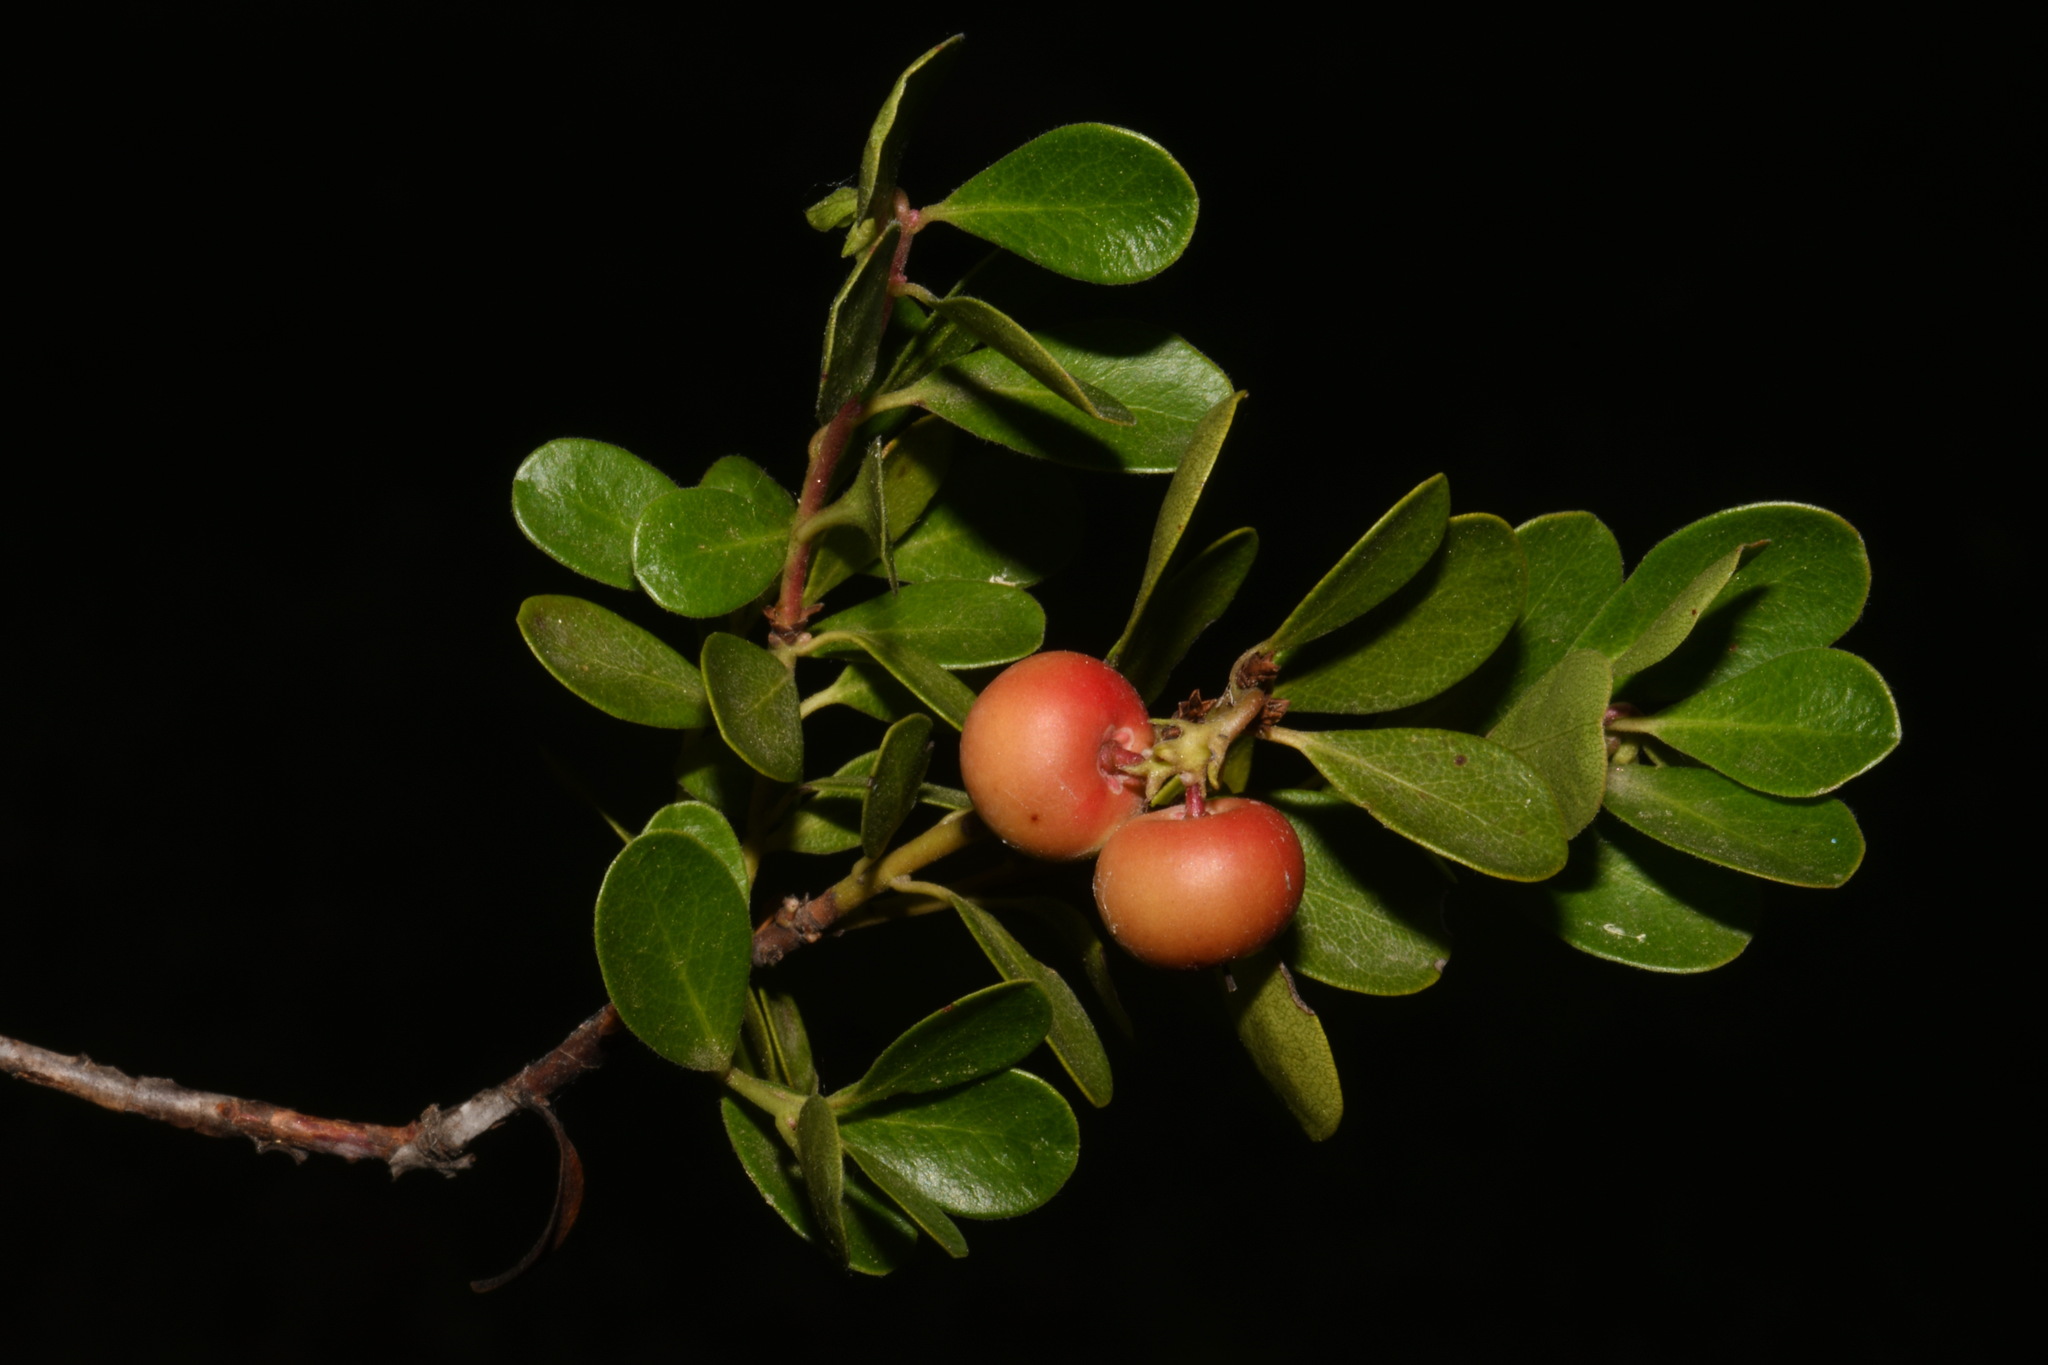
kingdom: Plantae
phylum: Tracheophyta
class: Magnoliopsida
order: Ericales
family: Ericaceae
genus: Arctostaphylos
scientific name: Arctostaphylos uva-ursi
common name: Bearberry
